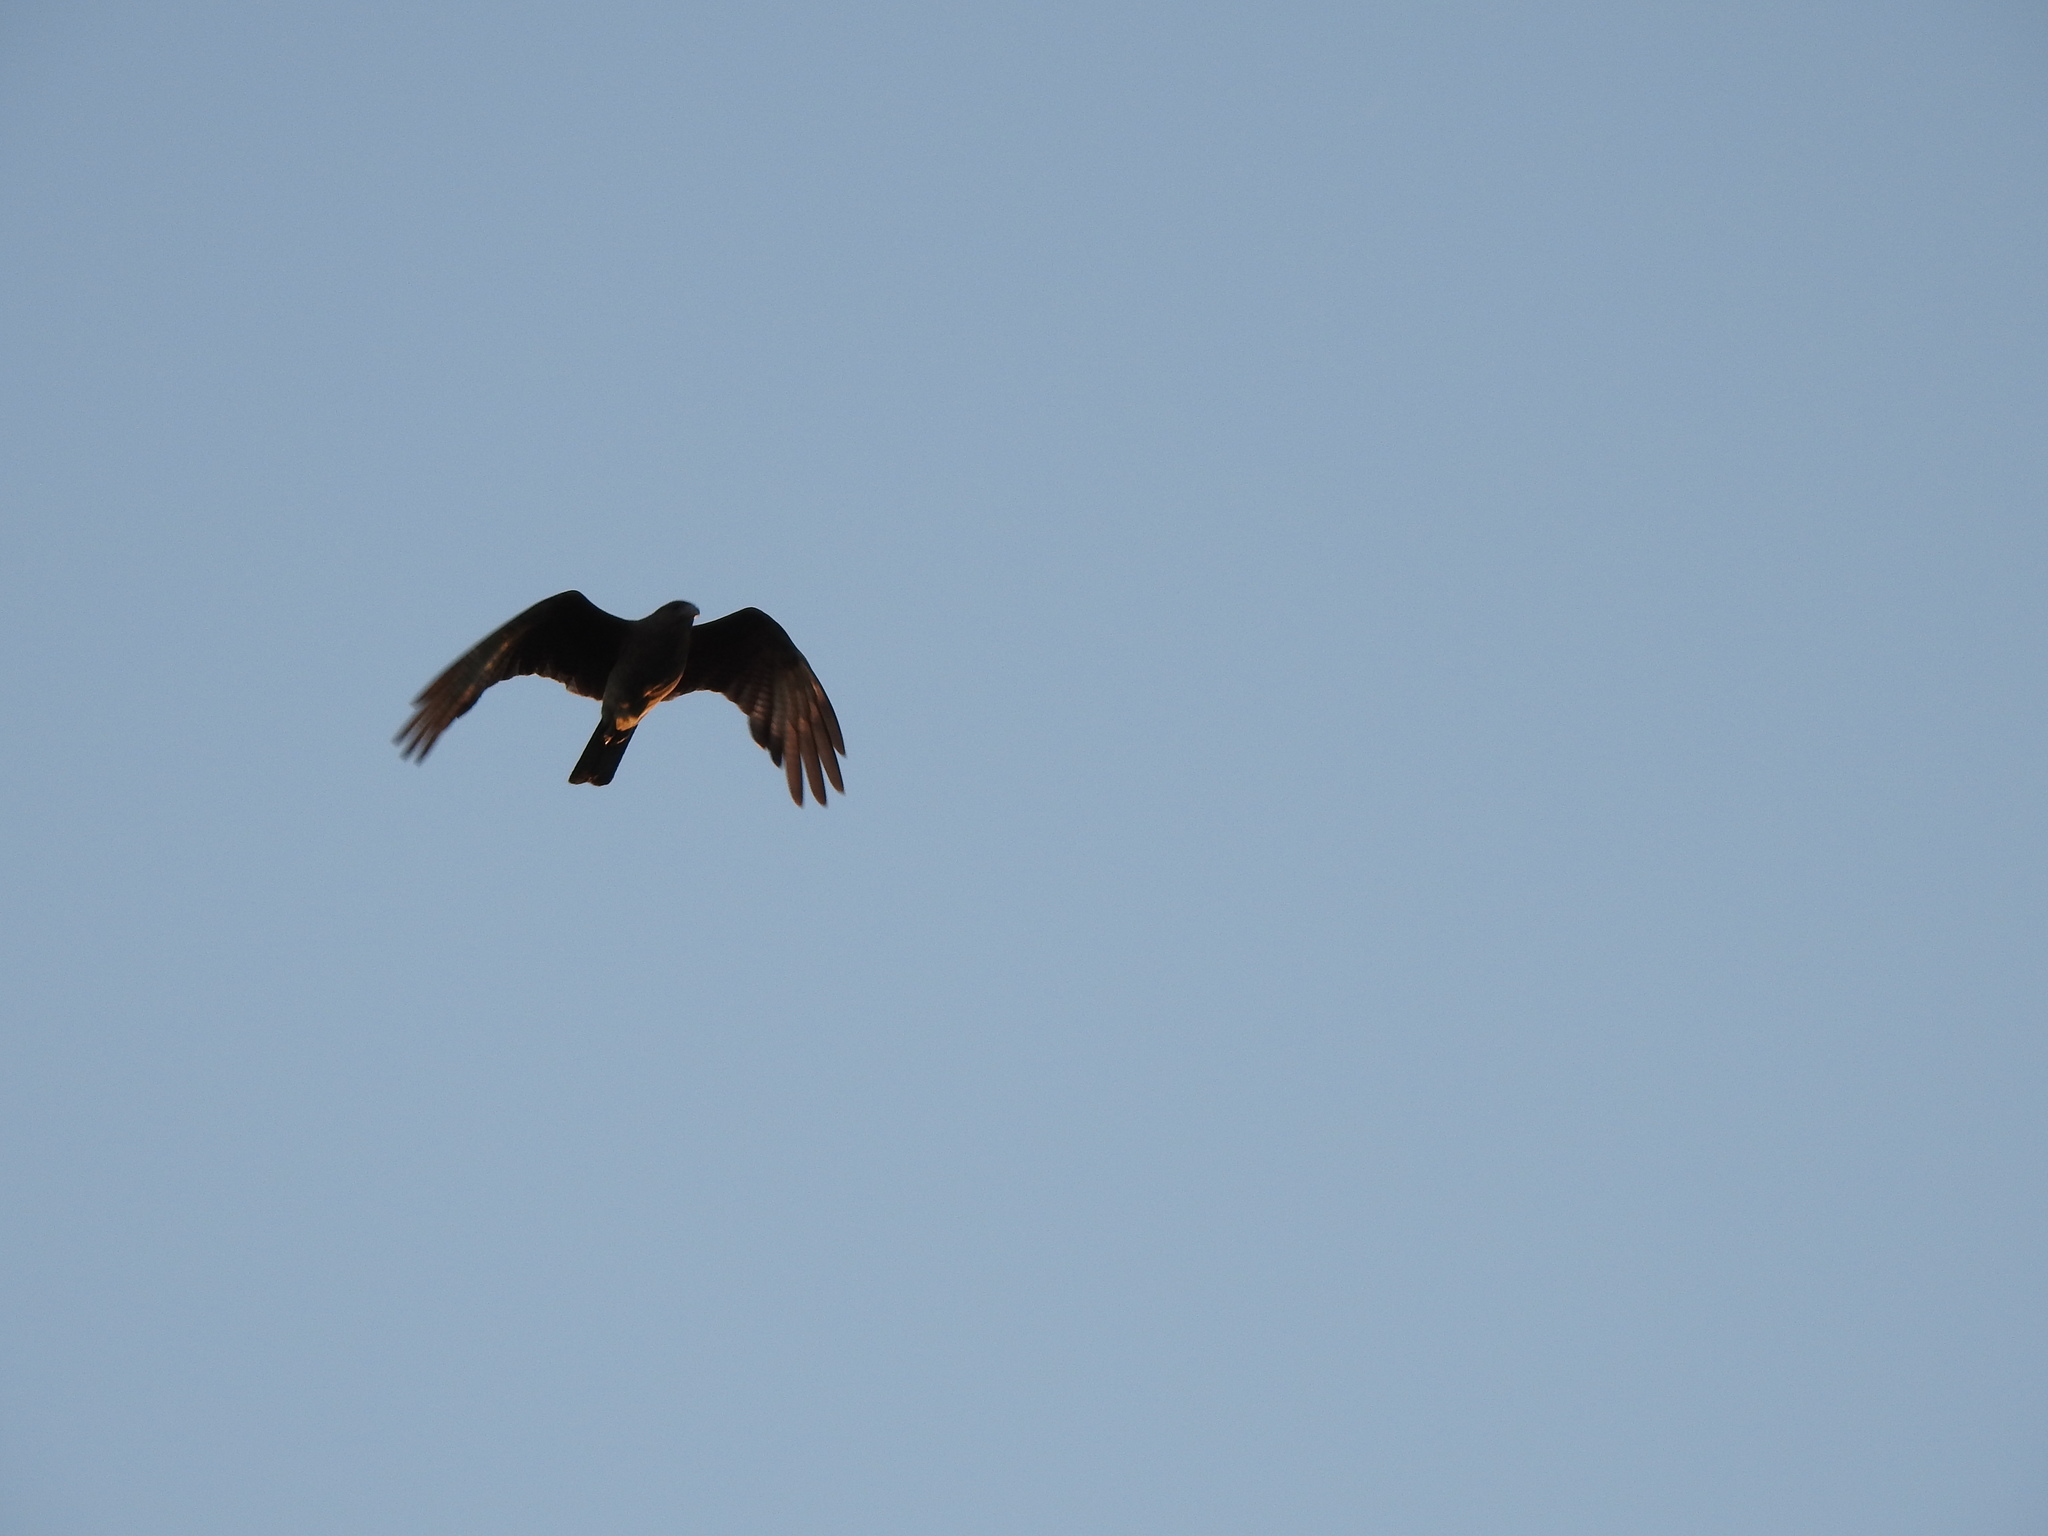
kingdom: Animalia
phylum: Chordata
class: Aves
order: Falconiformes
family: Falconidae
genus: Daptrius
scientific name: Daptrius
